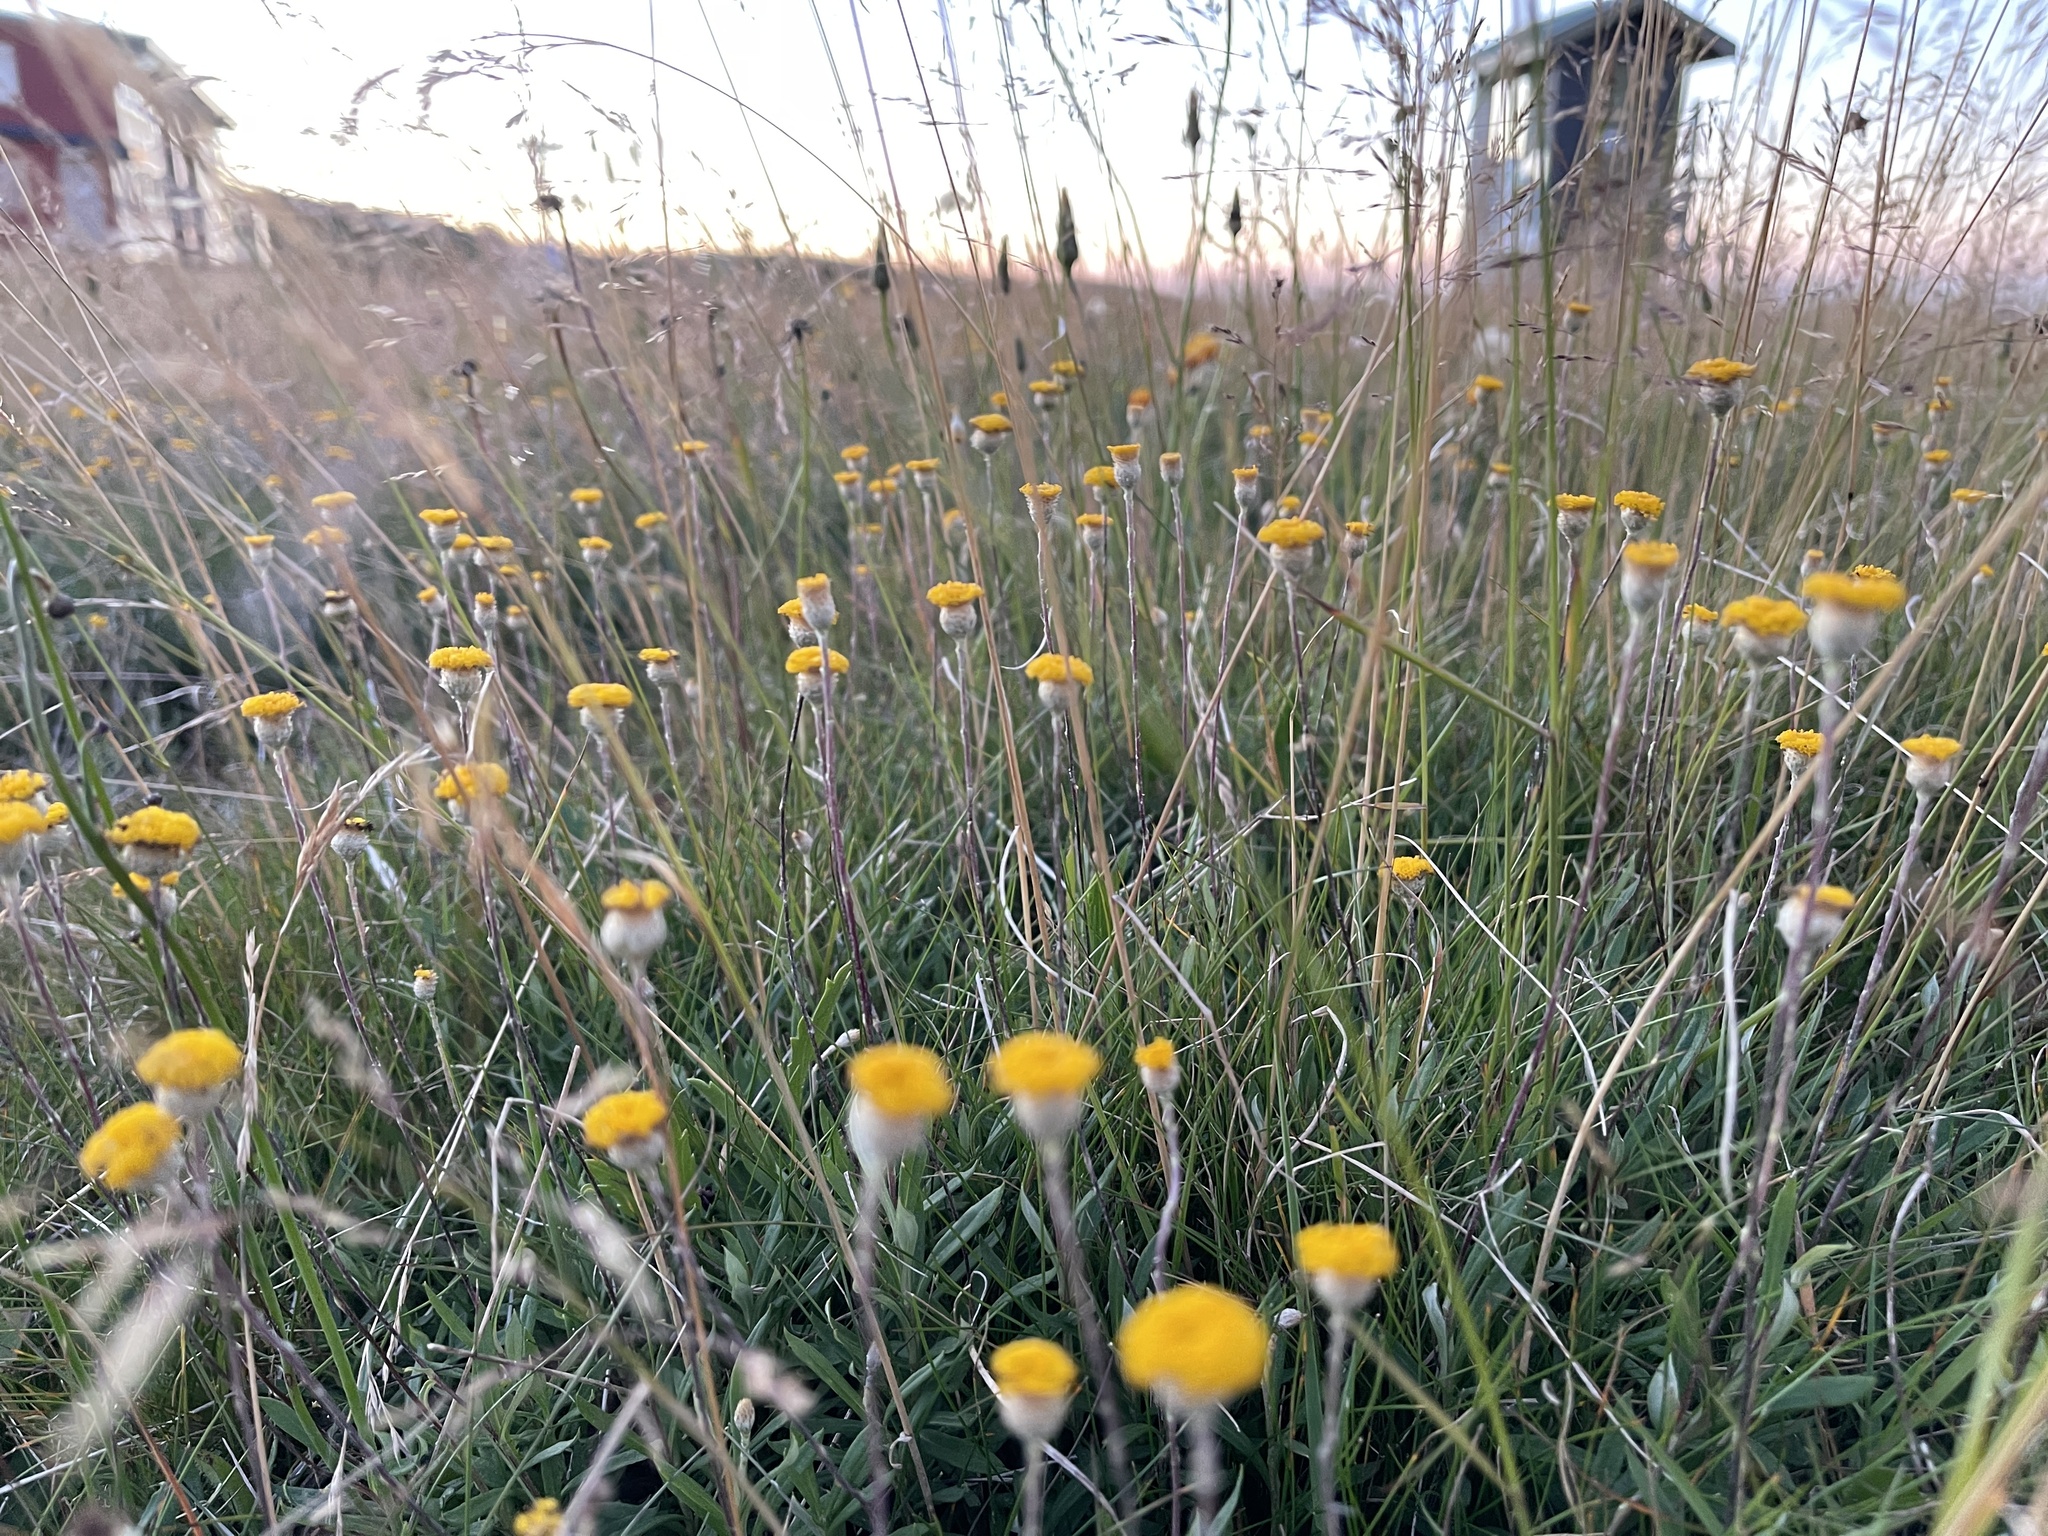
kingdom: Plantae
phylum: Tracheophyta
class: Magnoliopsida
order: Asterales
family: Asteraceae
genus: Leptorhynchos
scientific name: Leptorhynchos squamatus
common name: Scaly-buttons
